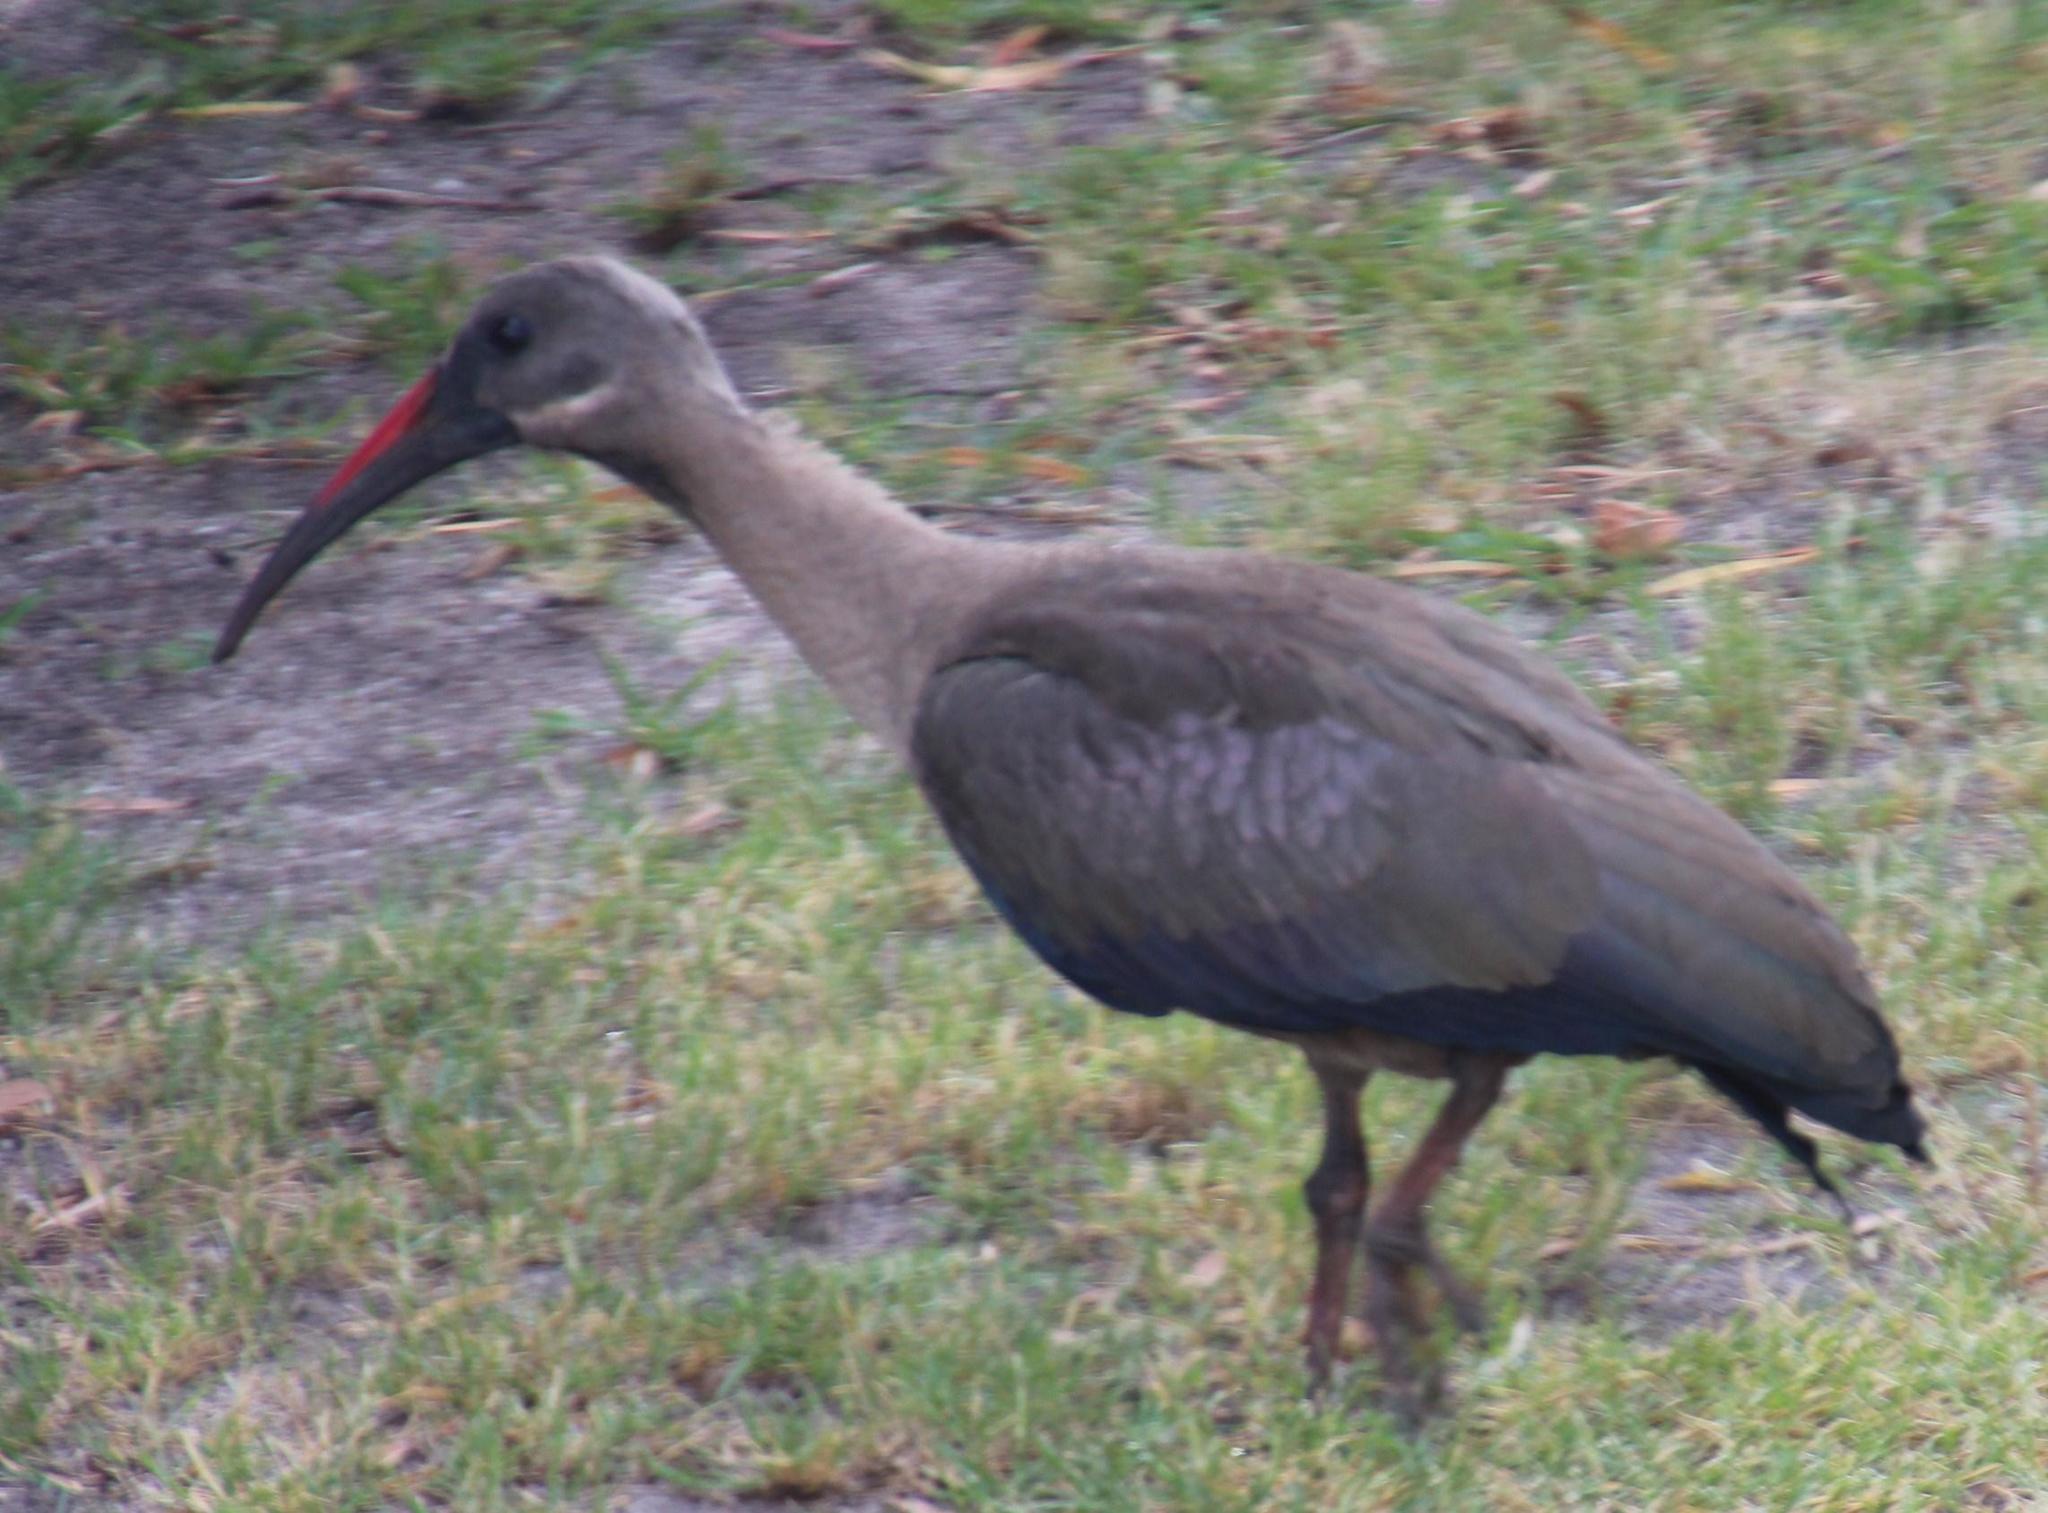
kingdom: Animalia
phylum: Chordata
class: Aves
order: Pelecaniformes
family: Threskiornithidae
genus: Bostrychia
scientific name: Bostrychia hagedash
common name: Hadada ibis
